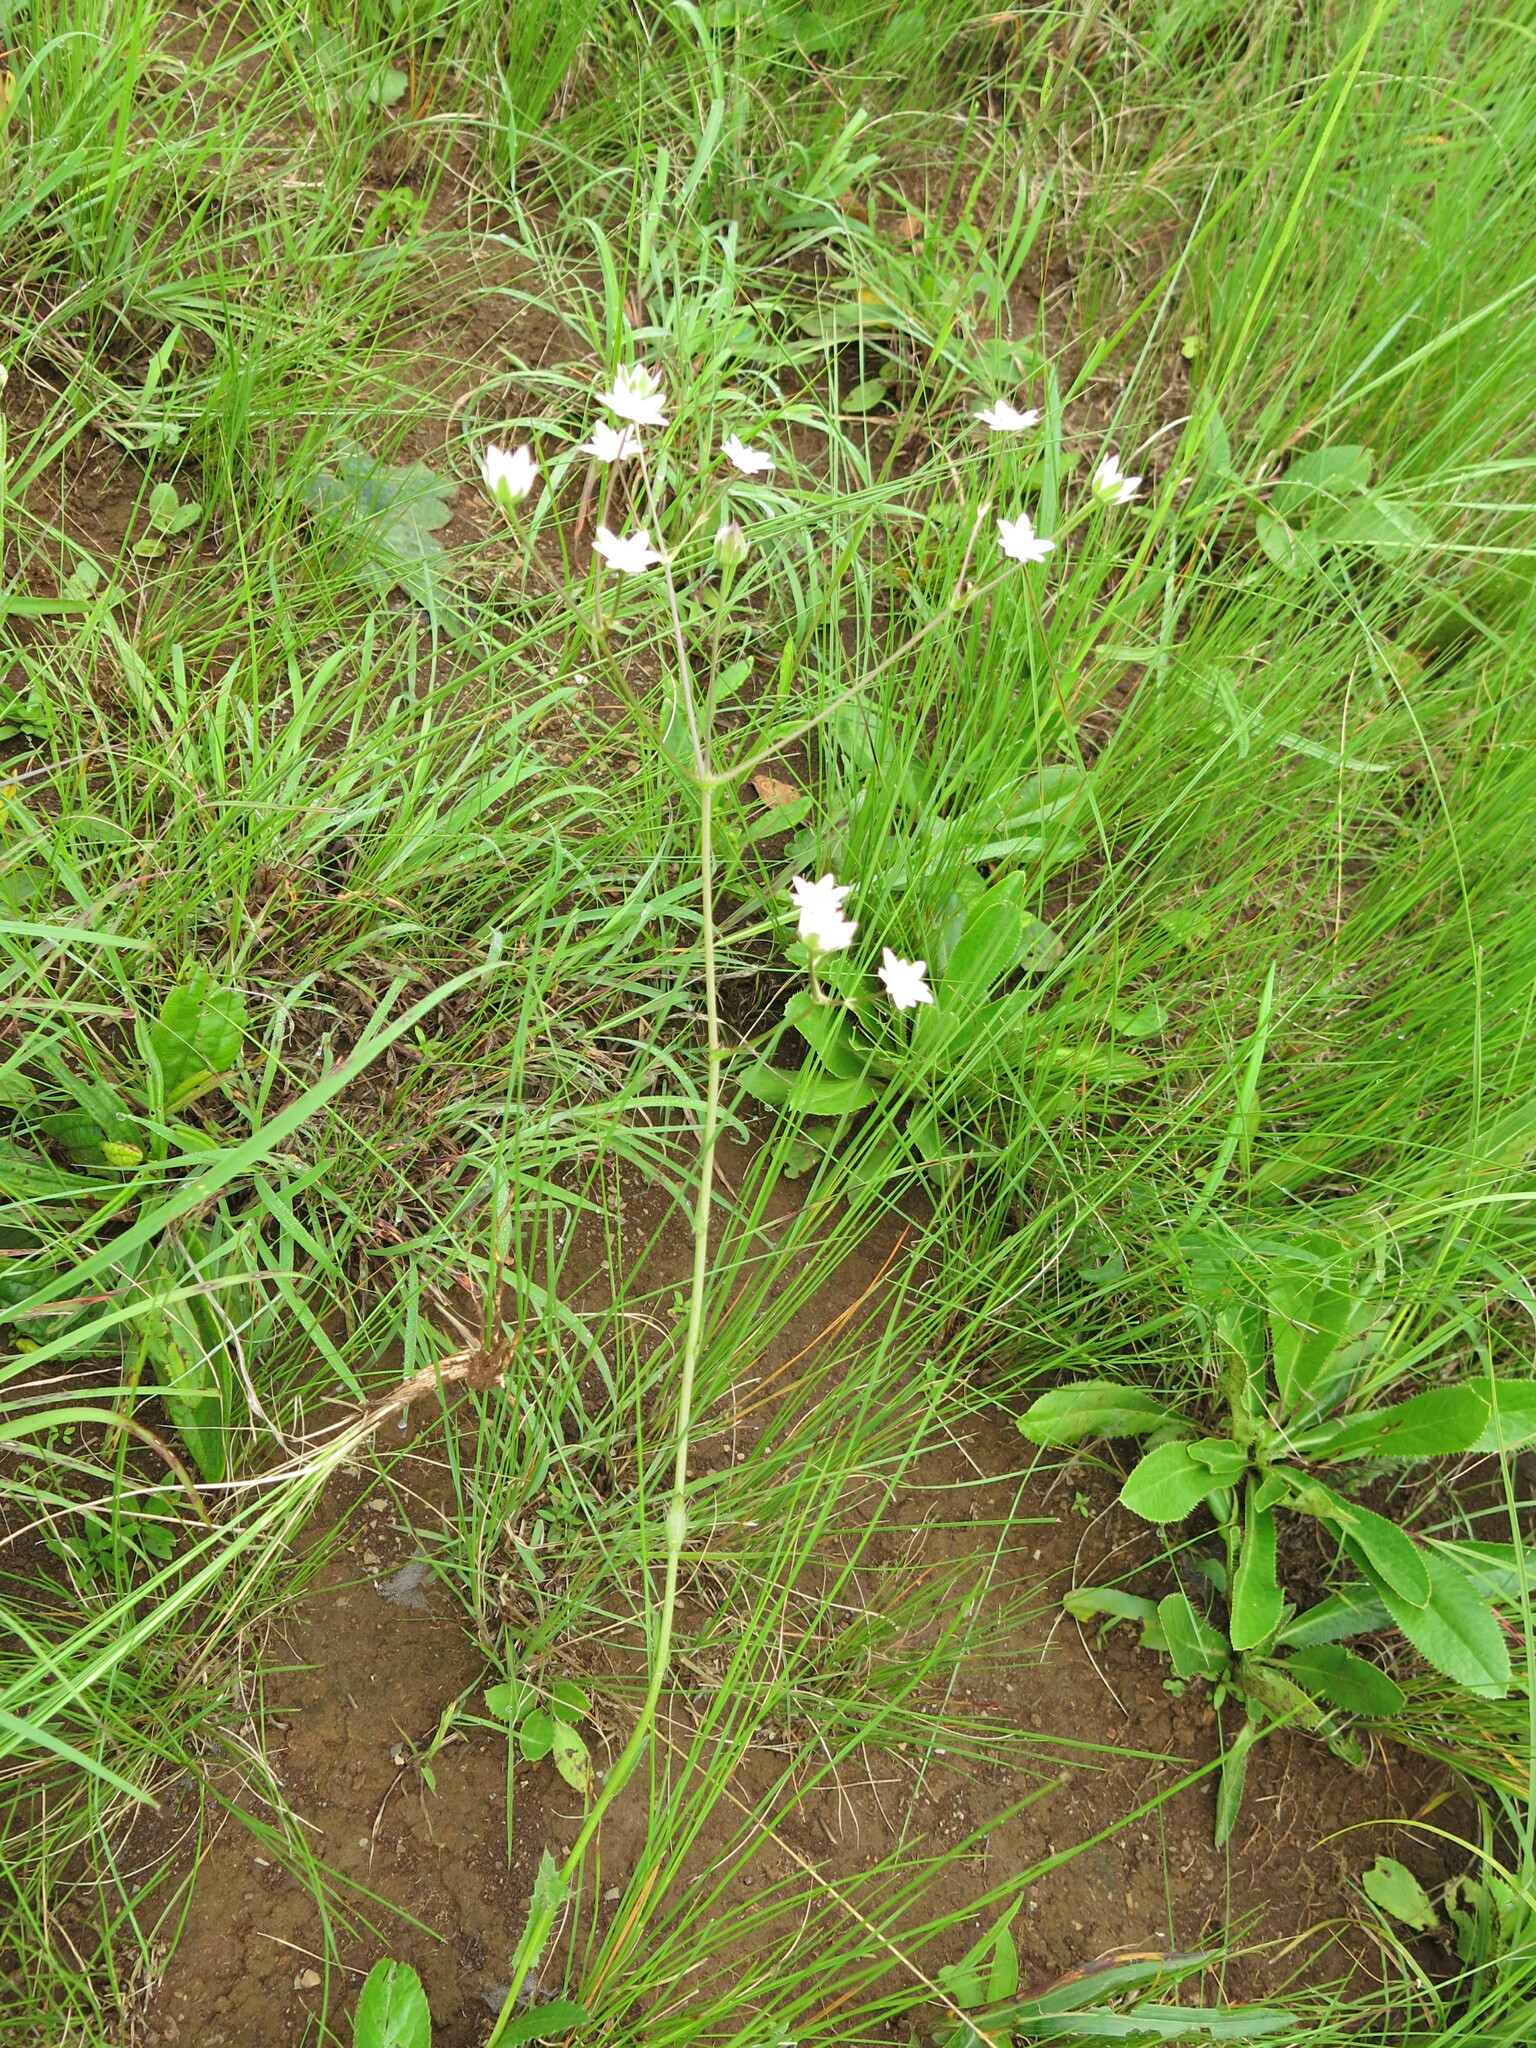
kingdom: Plantae
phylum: Tracheophyta
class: Magnoliopsida
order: Apiales
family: Apiaceae
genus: Alepidea
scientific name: Alepidea peduncularis
